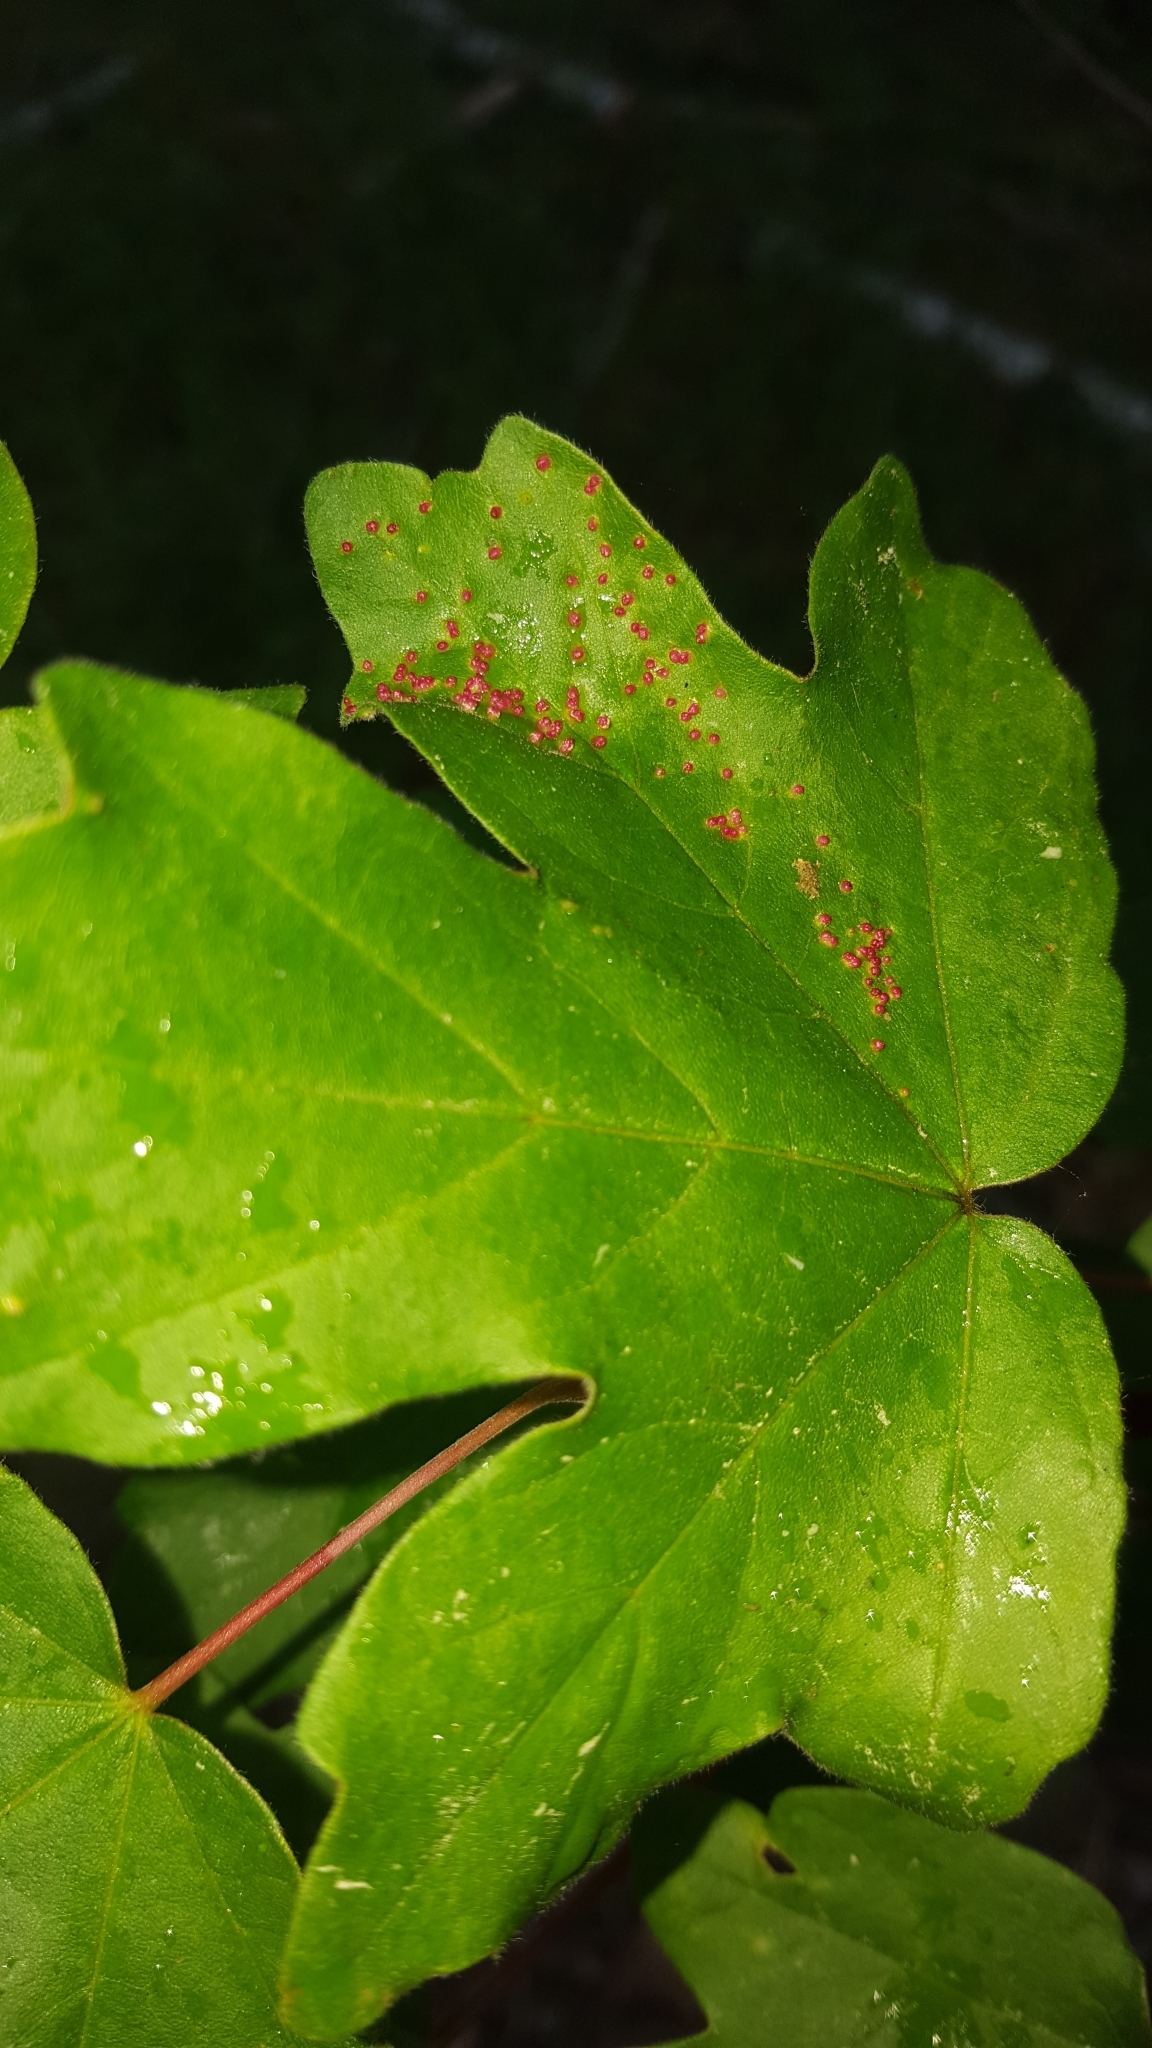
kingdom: Animalia
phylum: Arthropoda
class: Arachnida
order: Trombidiformes
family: Eriophyidae
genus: Aceria
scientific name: Aceria myriadeum
